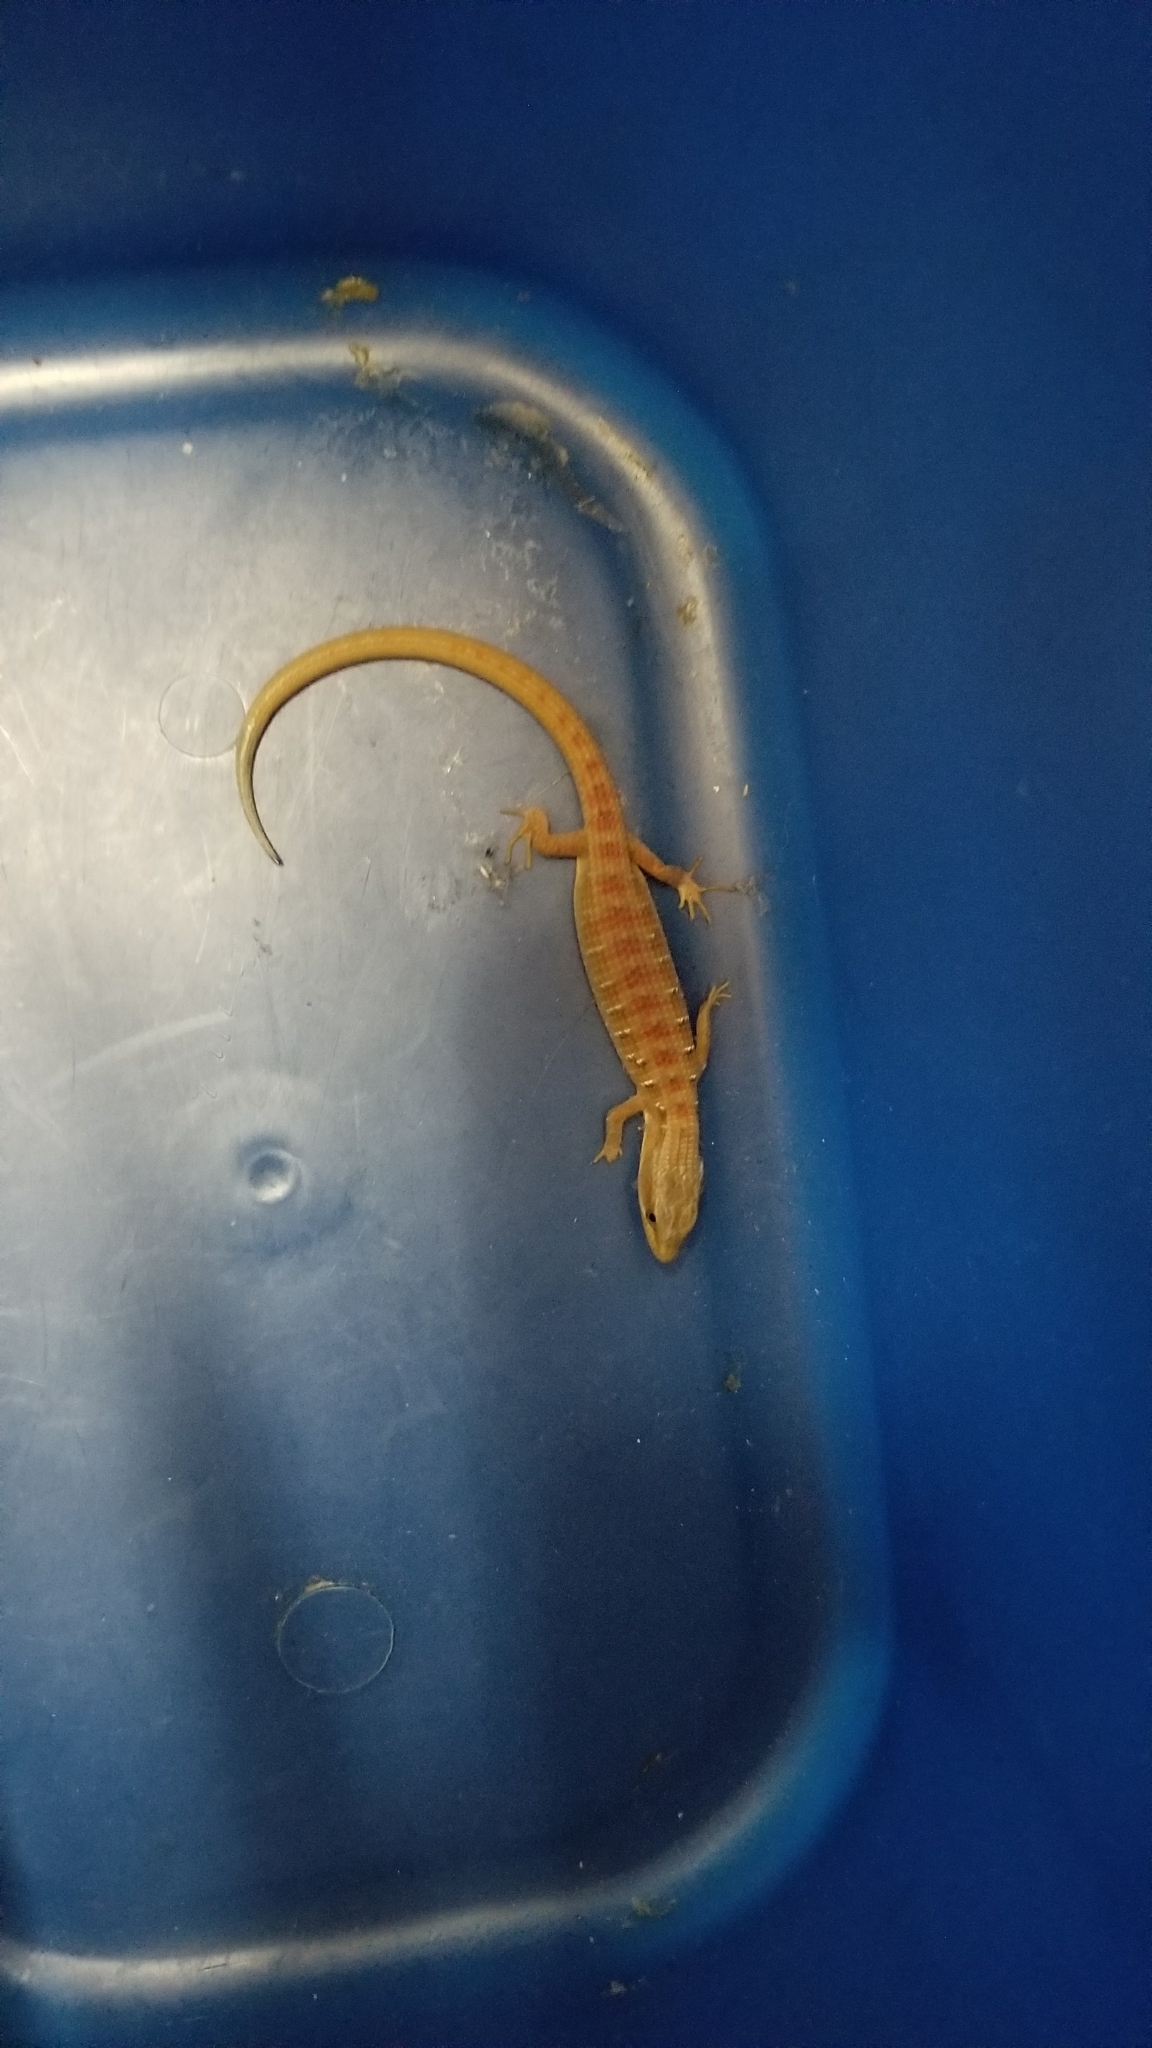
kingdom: Animalia
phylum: Chordata
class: Squamata
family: Anguidae
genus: Elgaria
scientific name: Elgaria multicarinata
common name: Southern alligator lizard
